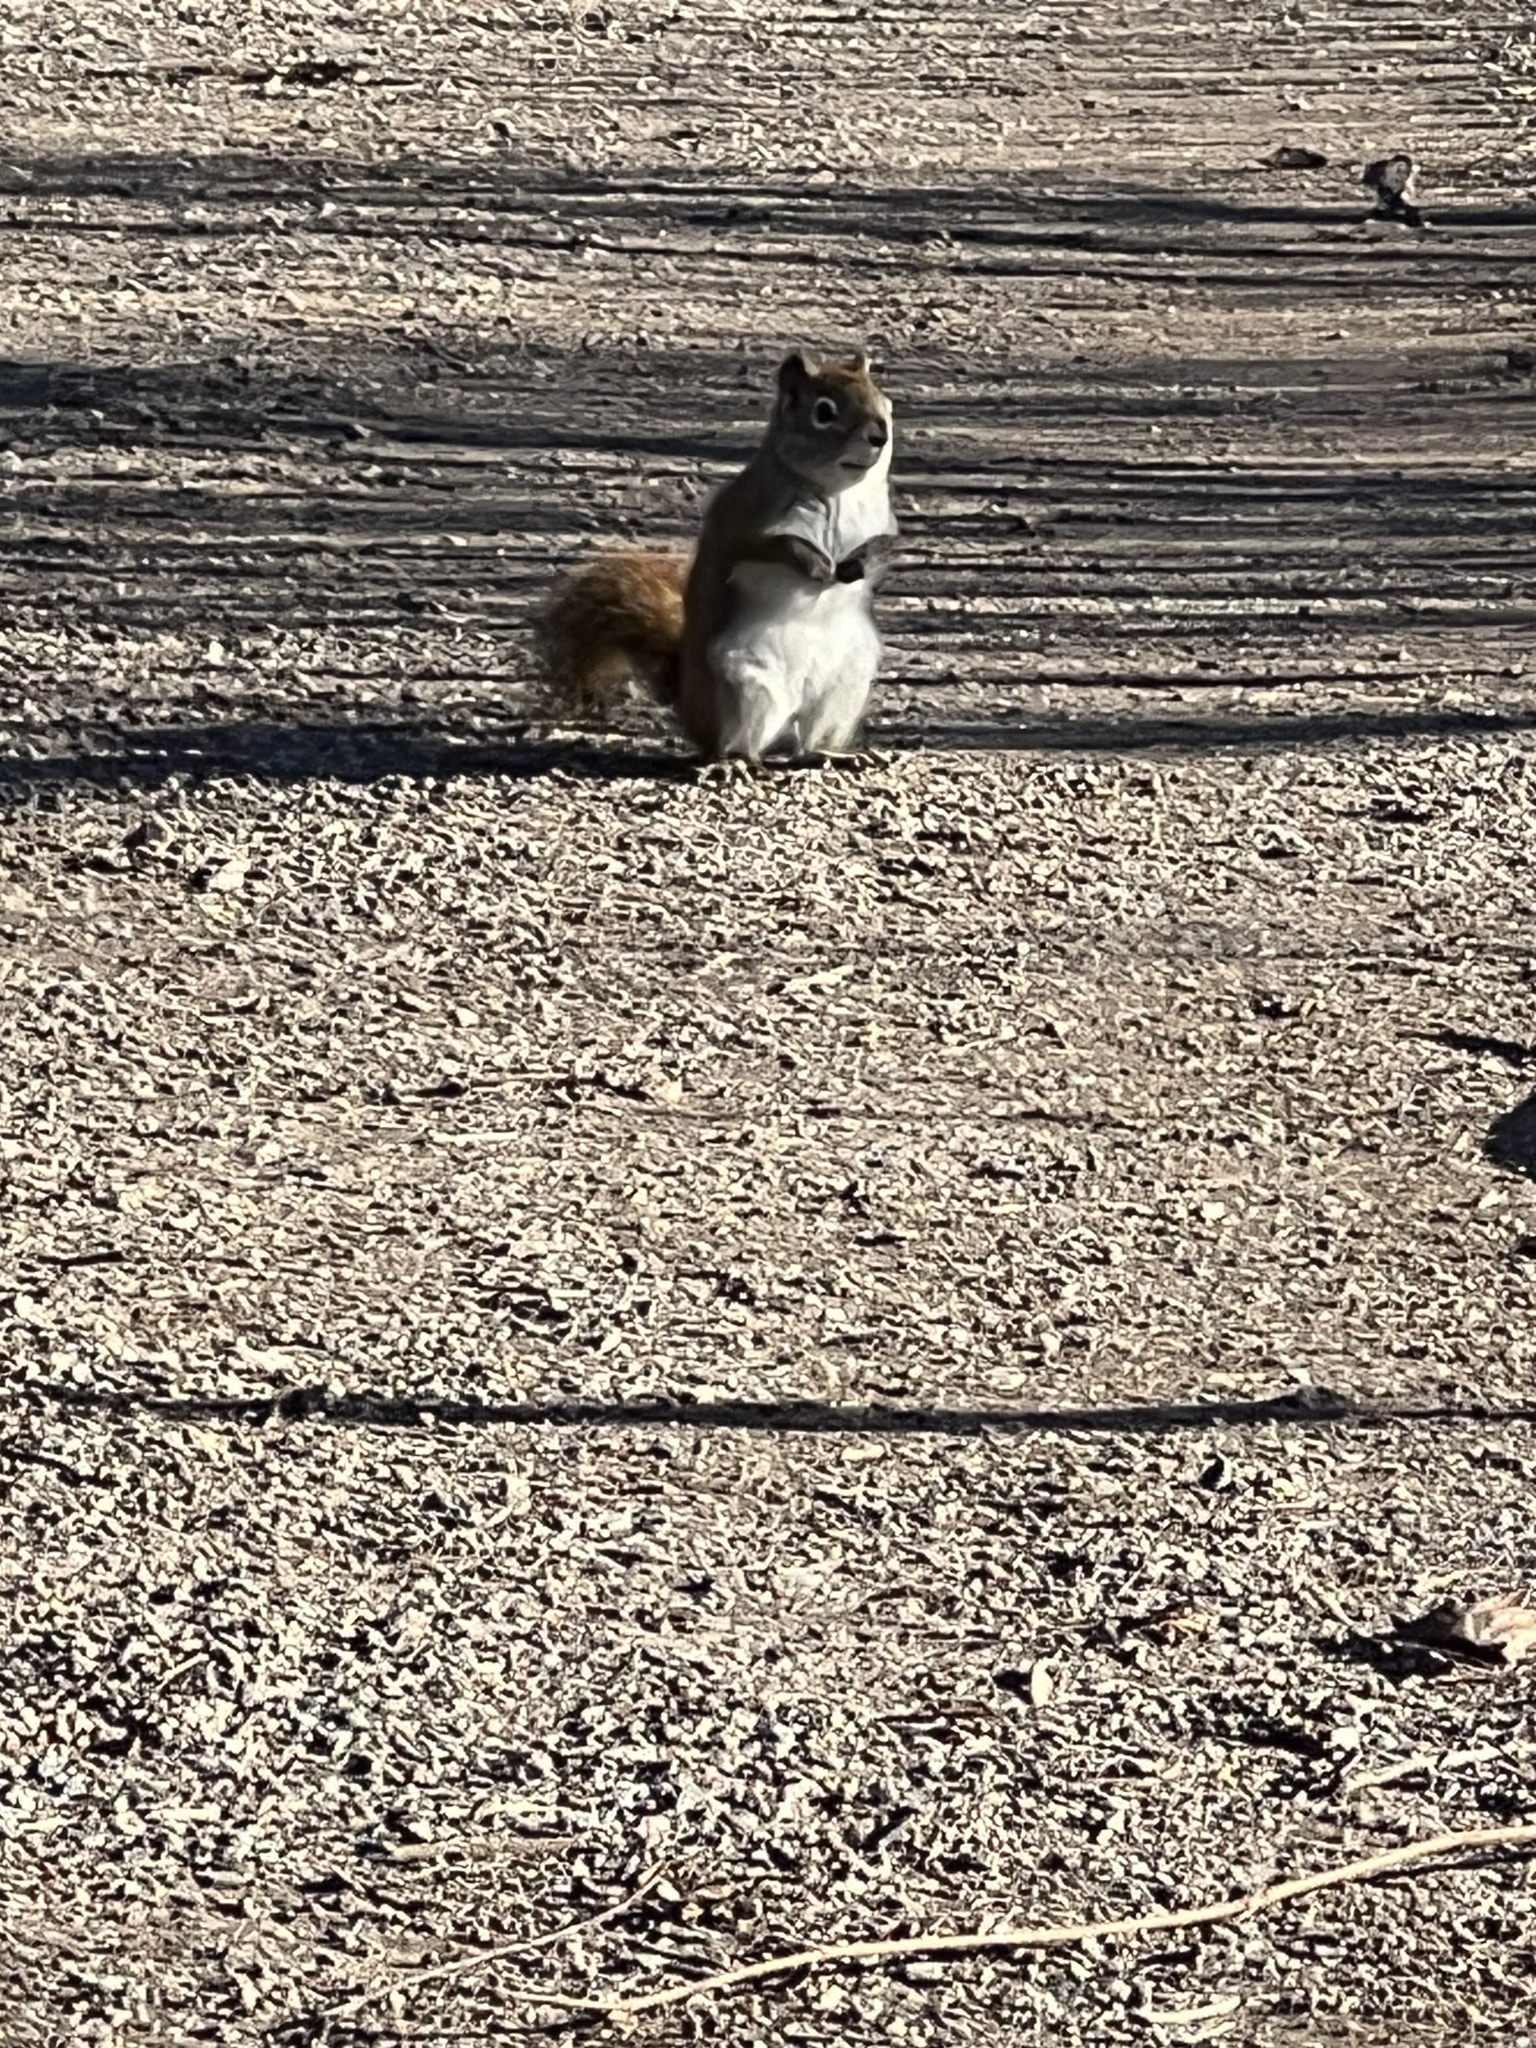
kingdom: Animalia
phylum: Chordata
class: Mammalia
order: Rodentia
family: Sciuridae
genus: Tamiasciurus
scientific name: Tamiasciurus hudsonicus
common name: Red squirrel
